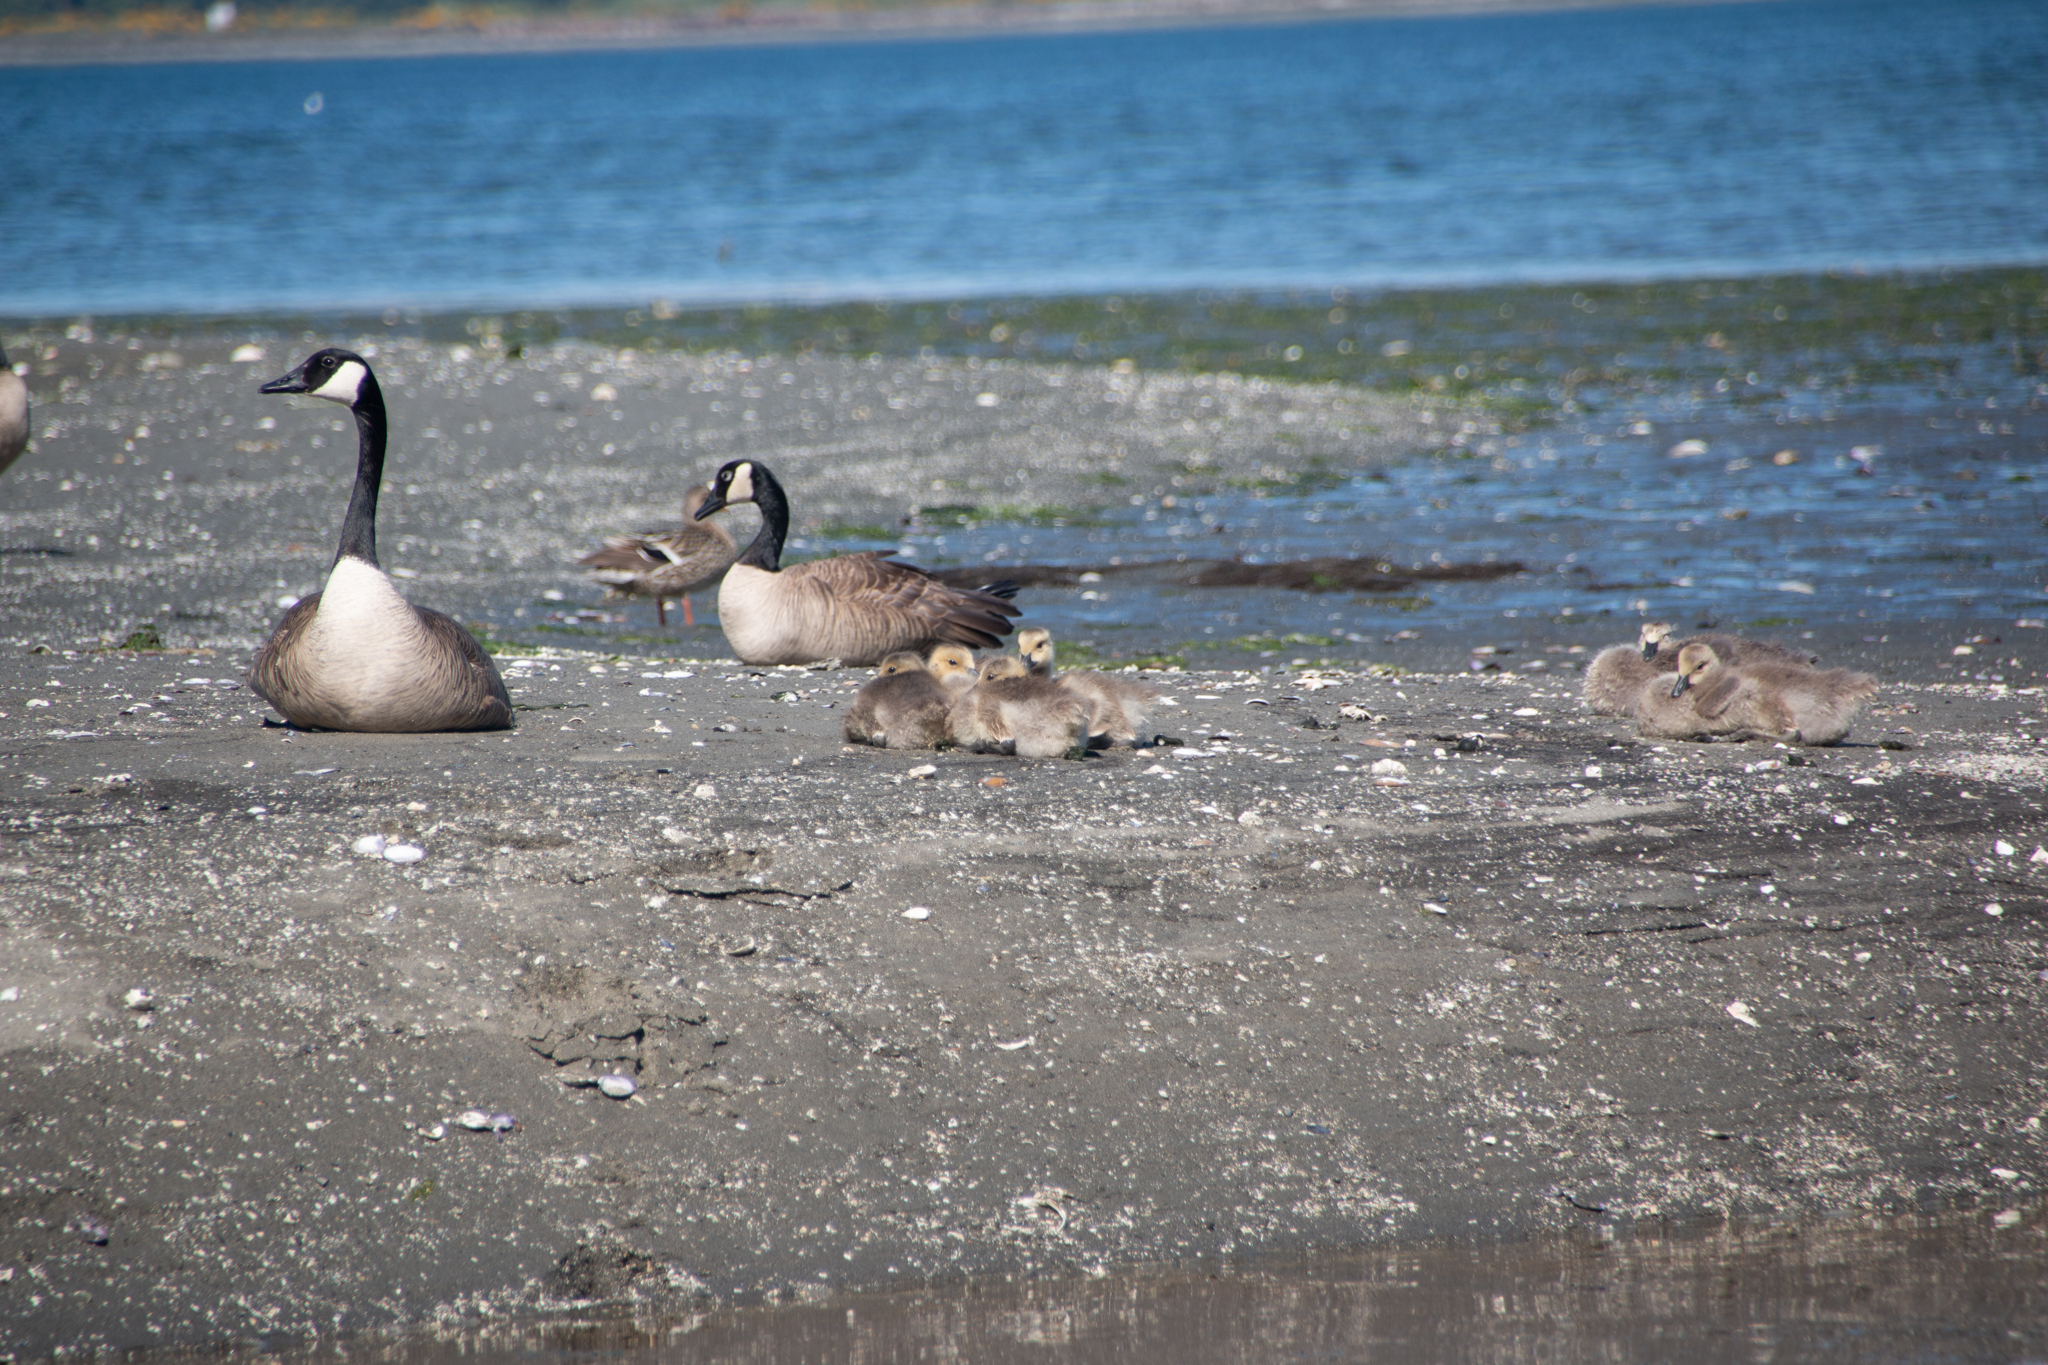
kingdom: Animalia
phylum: Chordata
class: Aves
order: Anseriformes
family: Anatidae
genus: Branta
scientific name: Branta canadensis
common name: Canada goose
